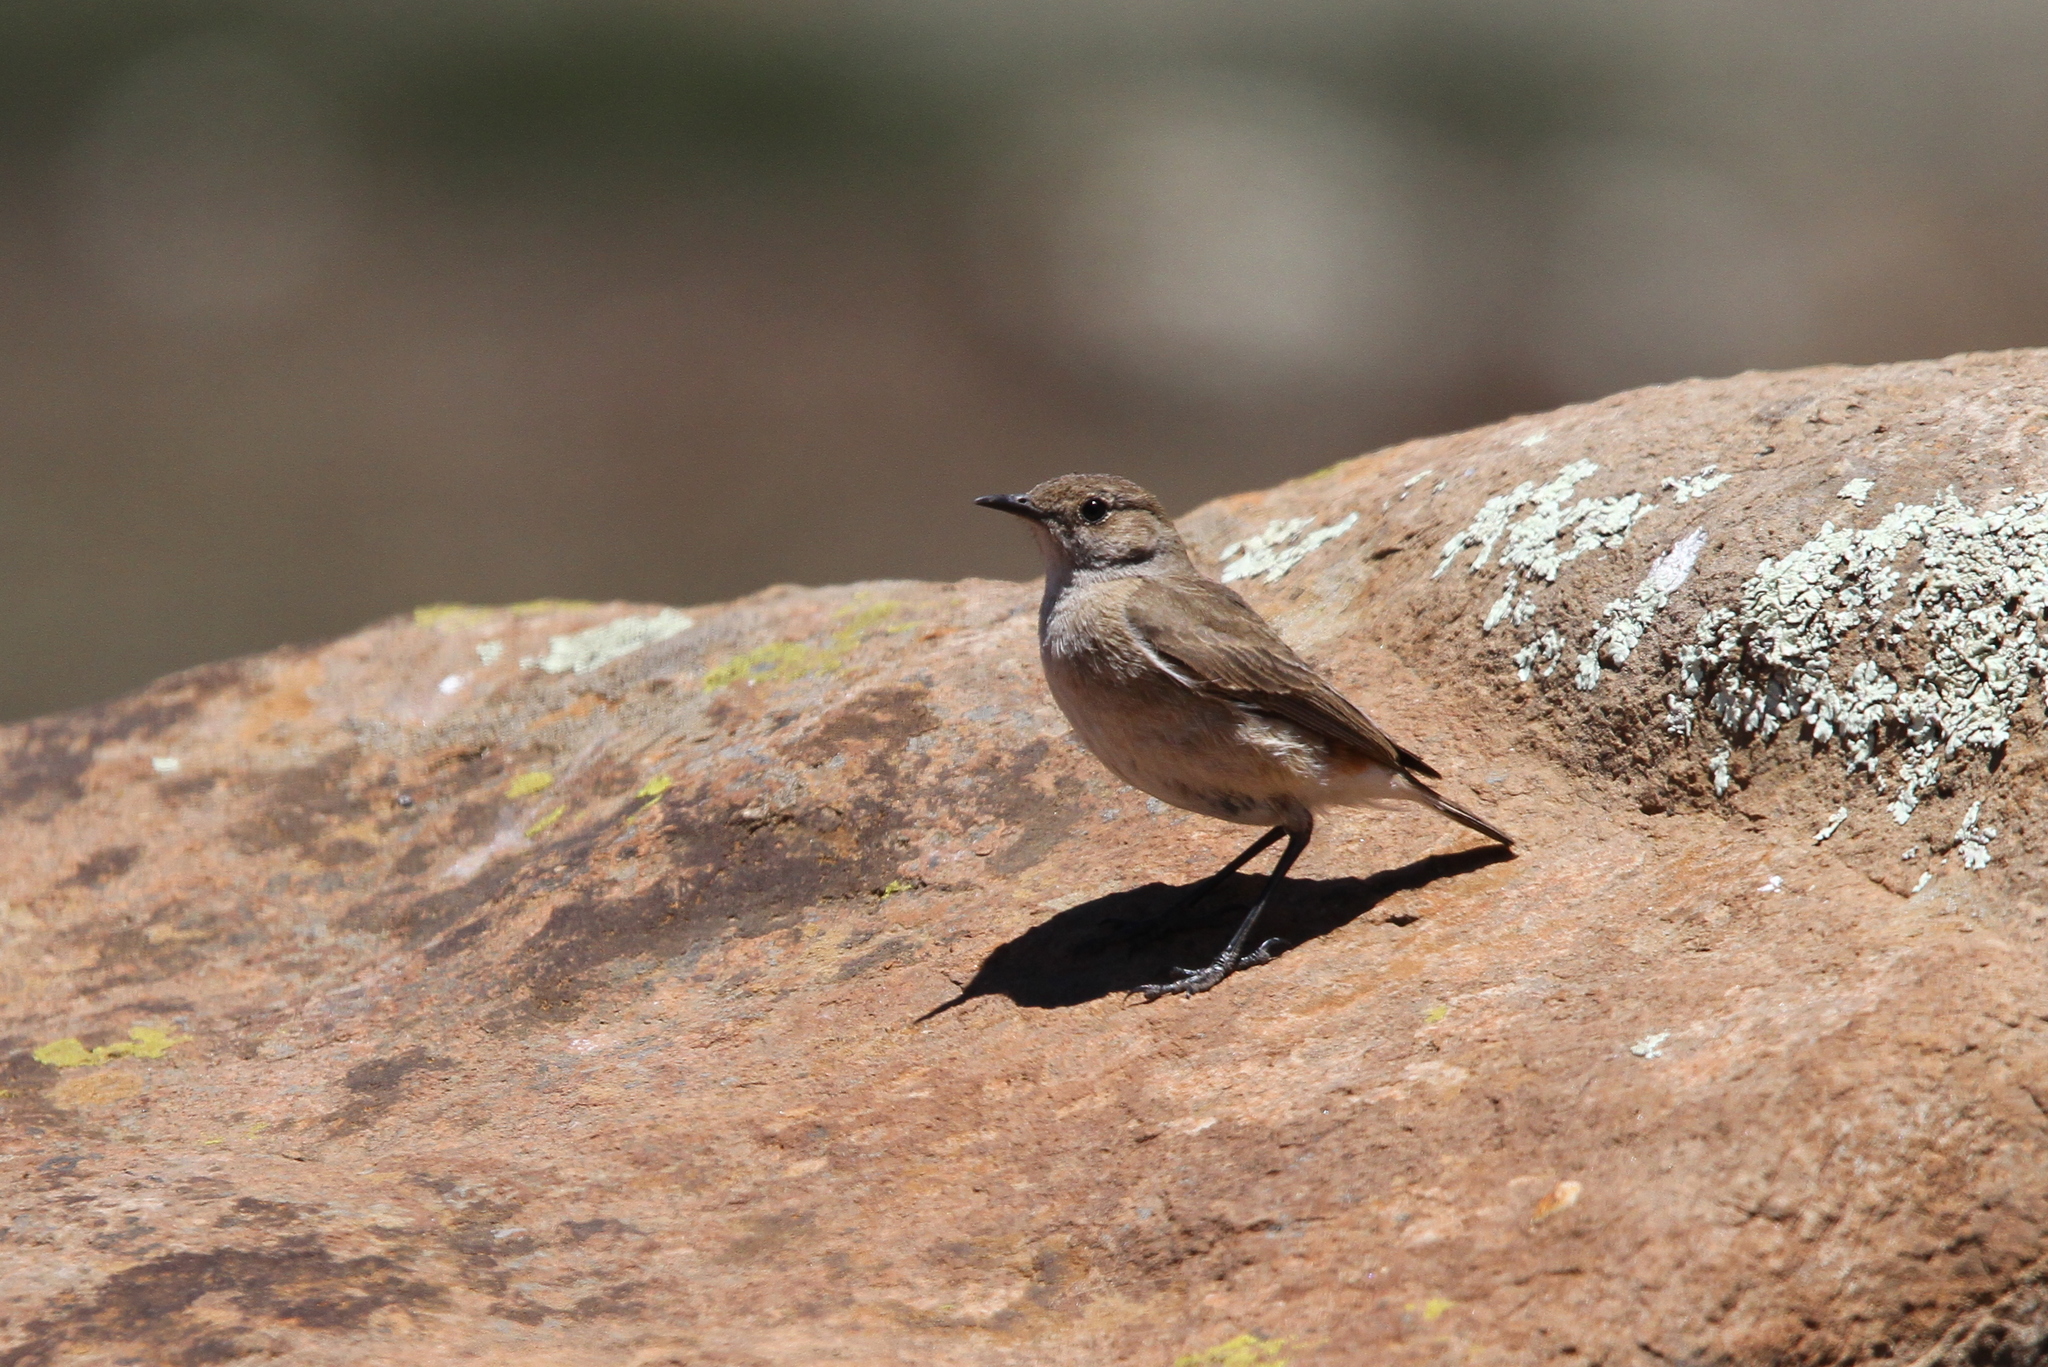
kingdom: Animalia
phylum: Chordata
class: Aves
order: Passeriformes
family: Muscicapidae
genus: Emarginata
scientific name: Emarginata sinuata
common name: Sickle-winged chat
